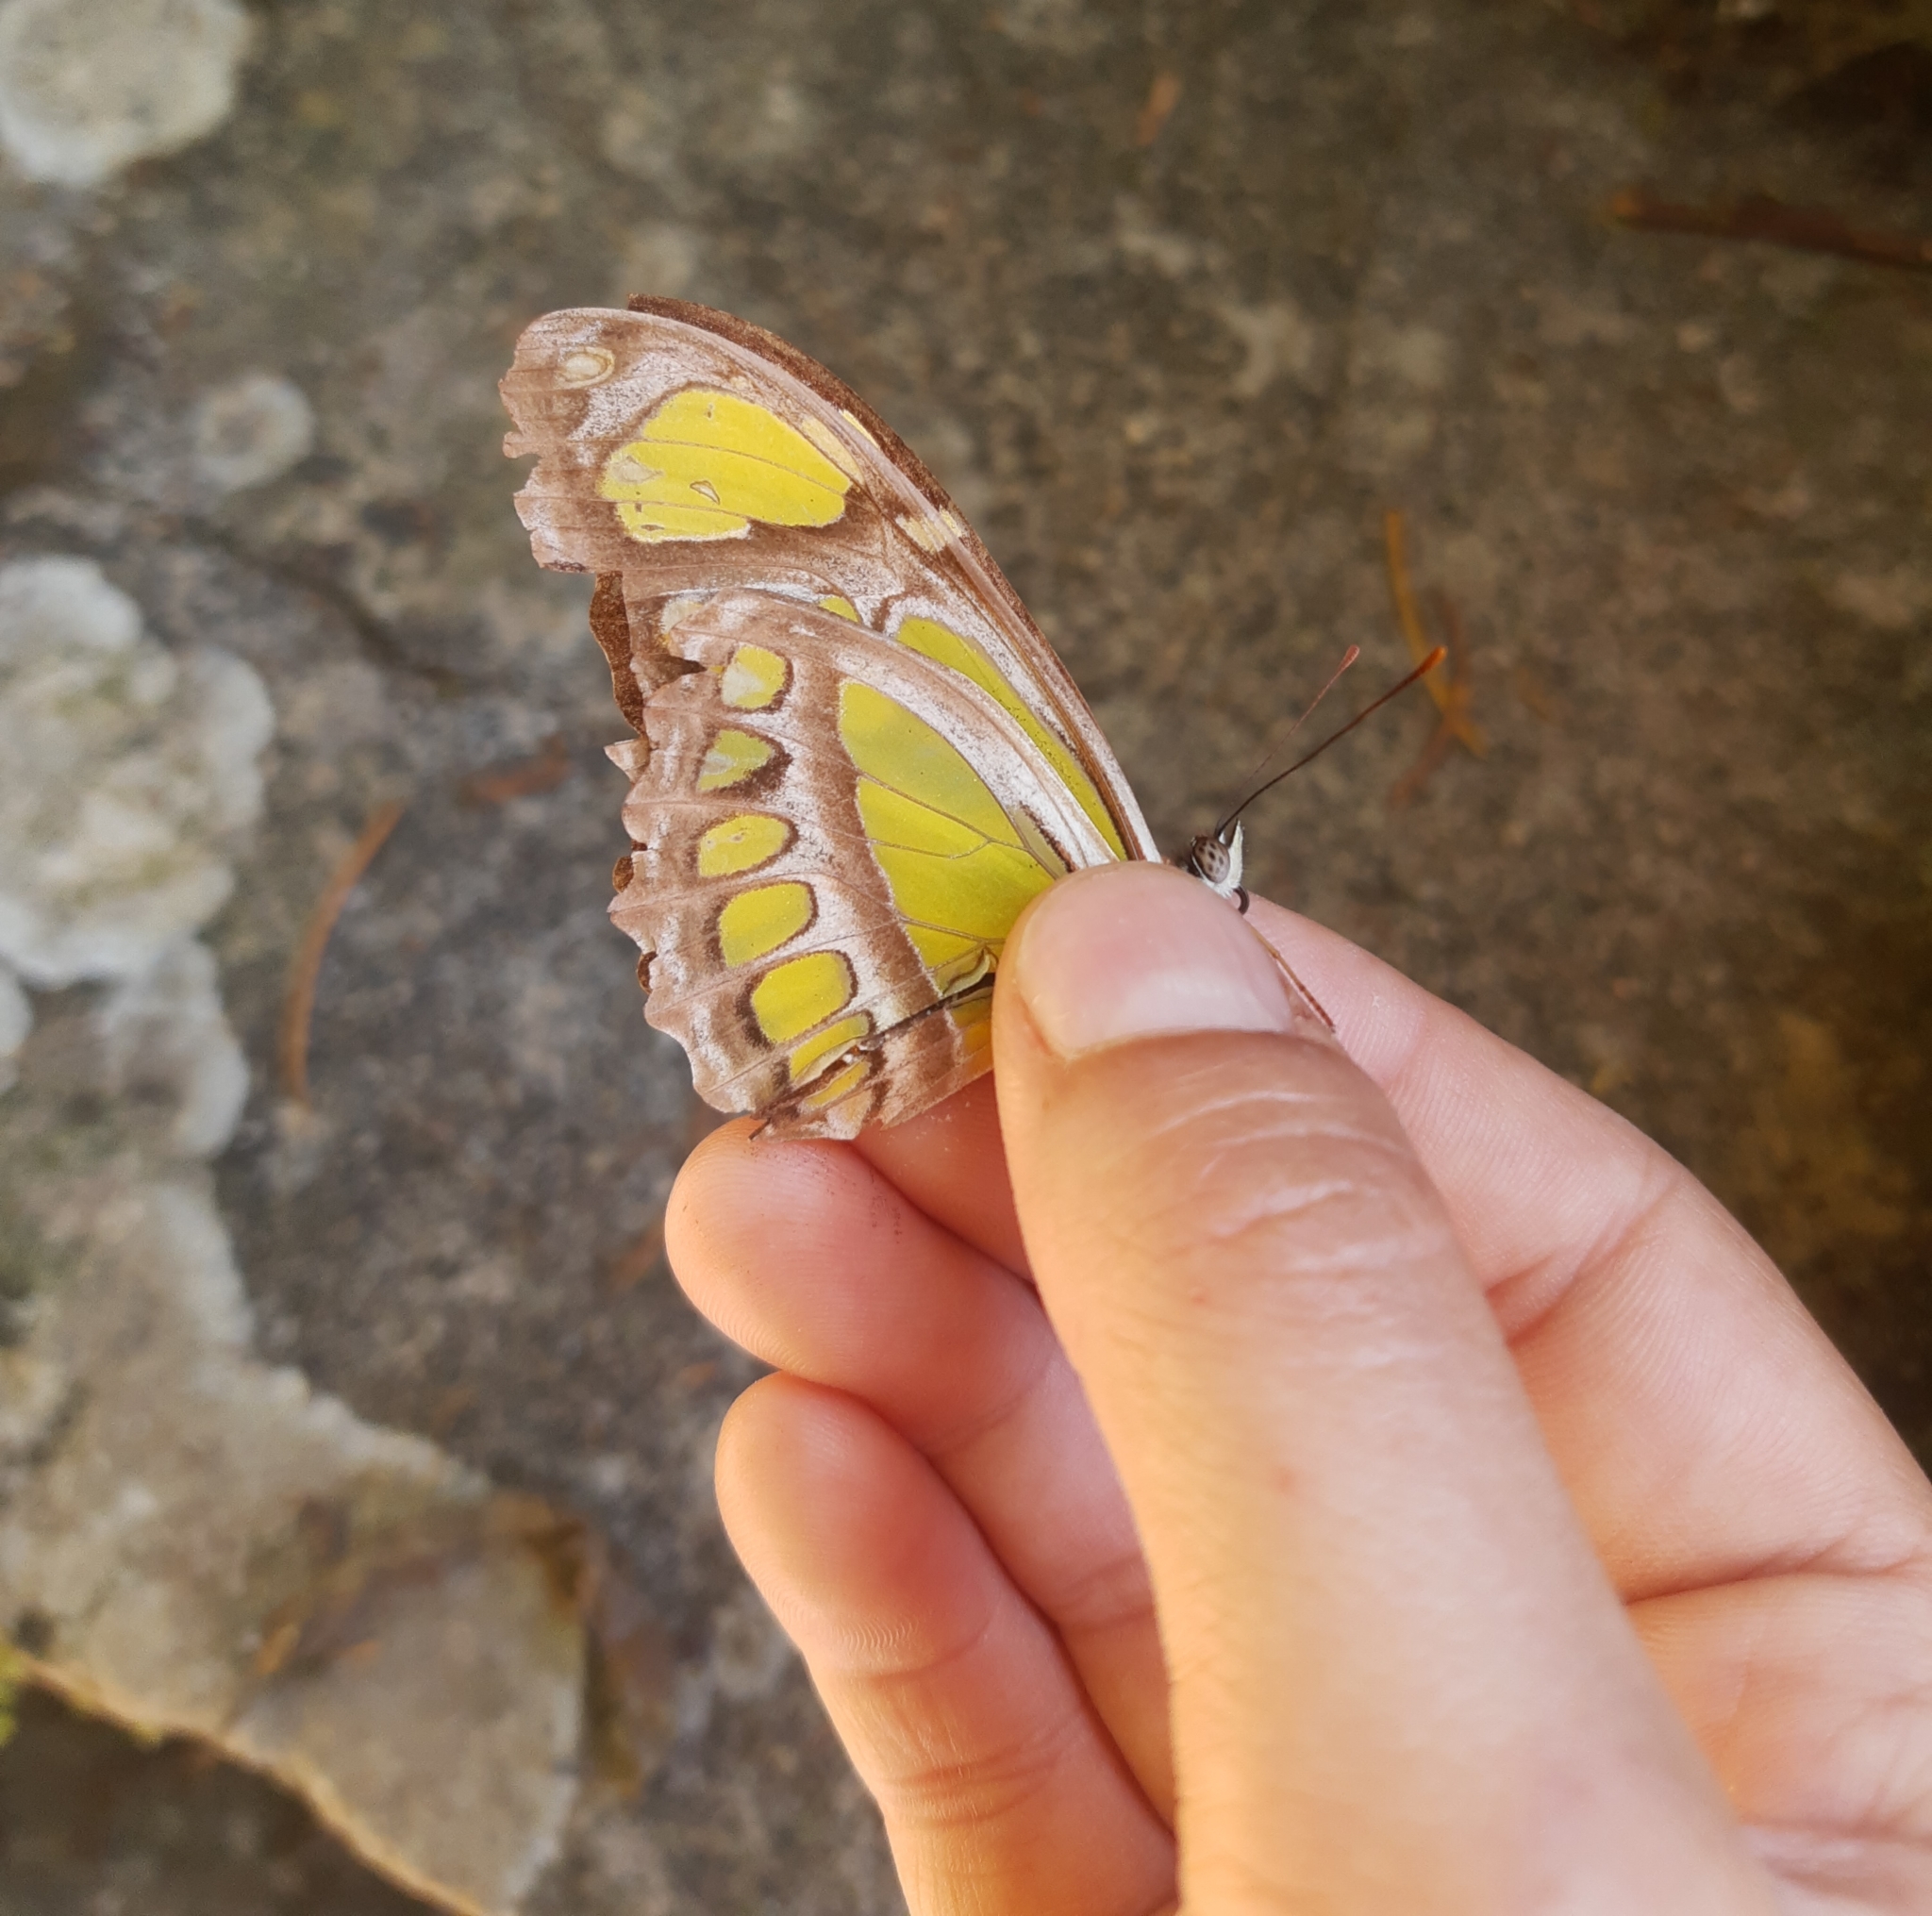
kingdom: Animalia
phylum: Arthropoda
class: Insecta
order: Lepidoptera
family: Nymphalidae
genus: Philaethria
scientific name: Philaethria dido
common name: Scarce bamboo page
